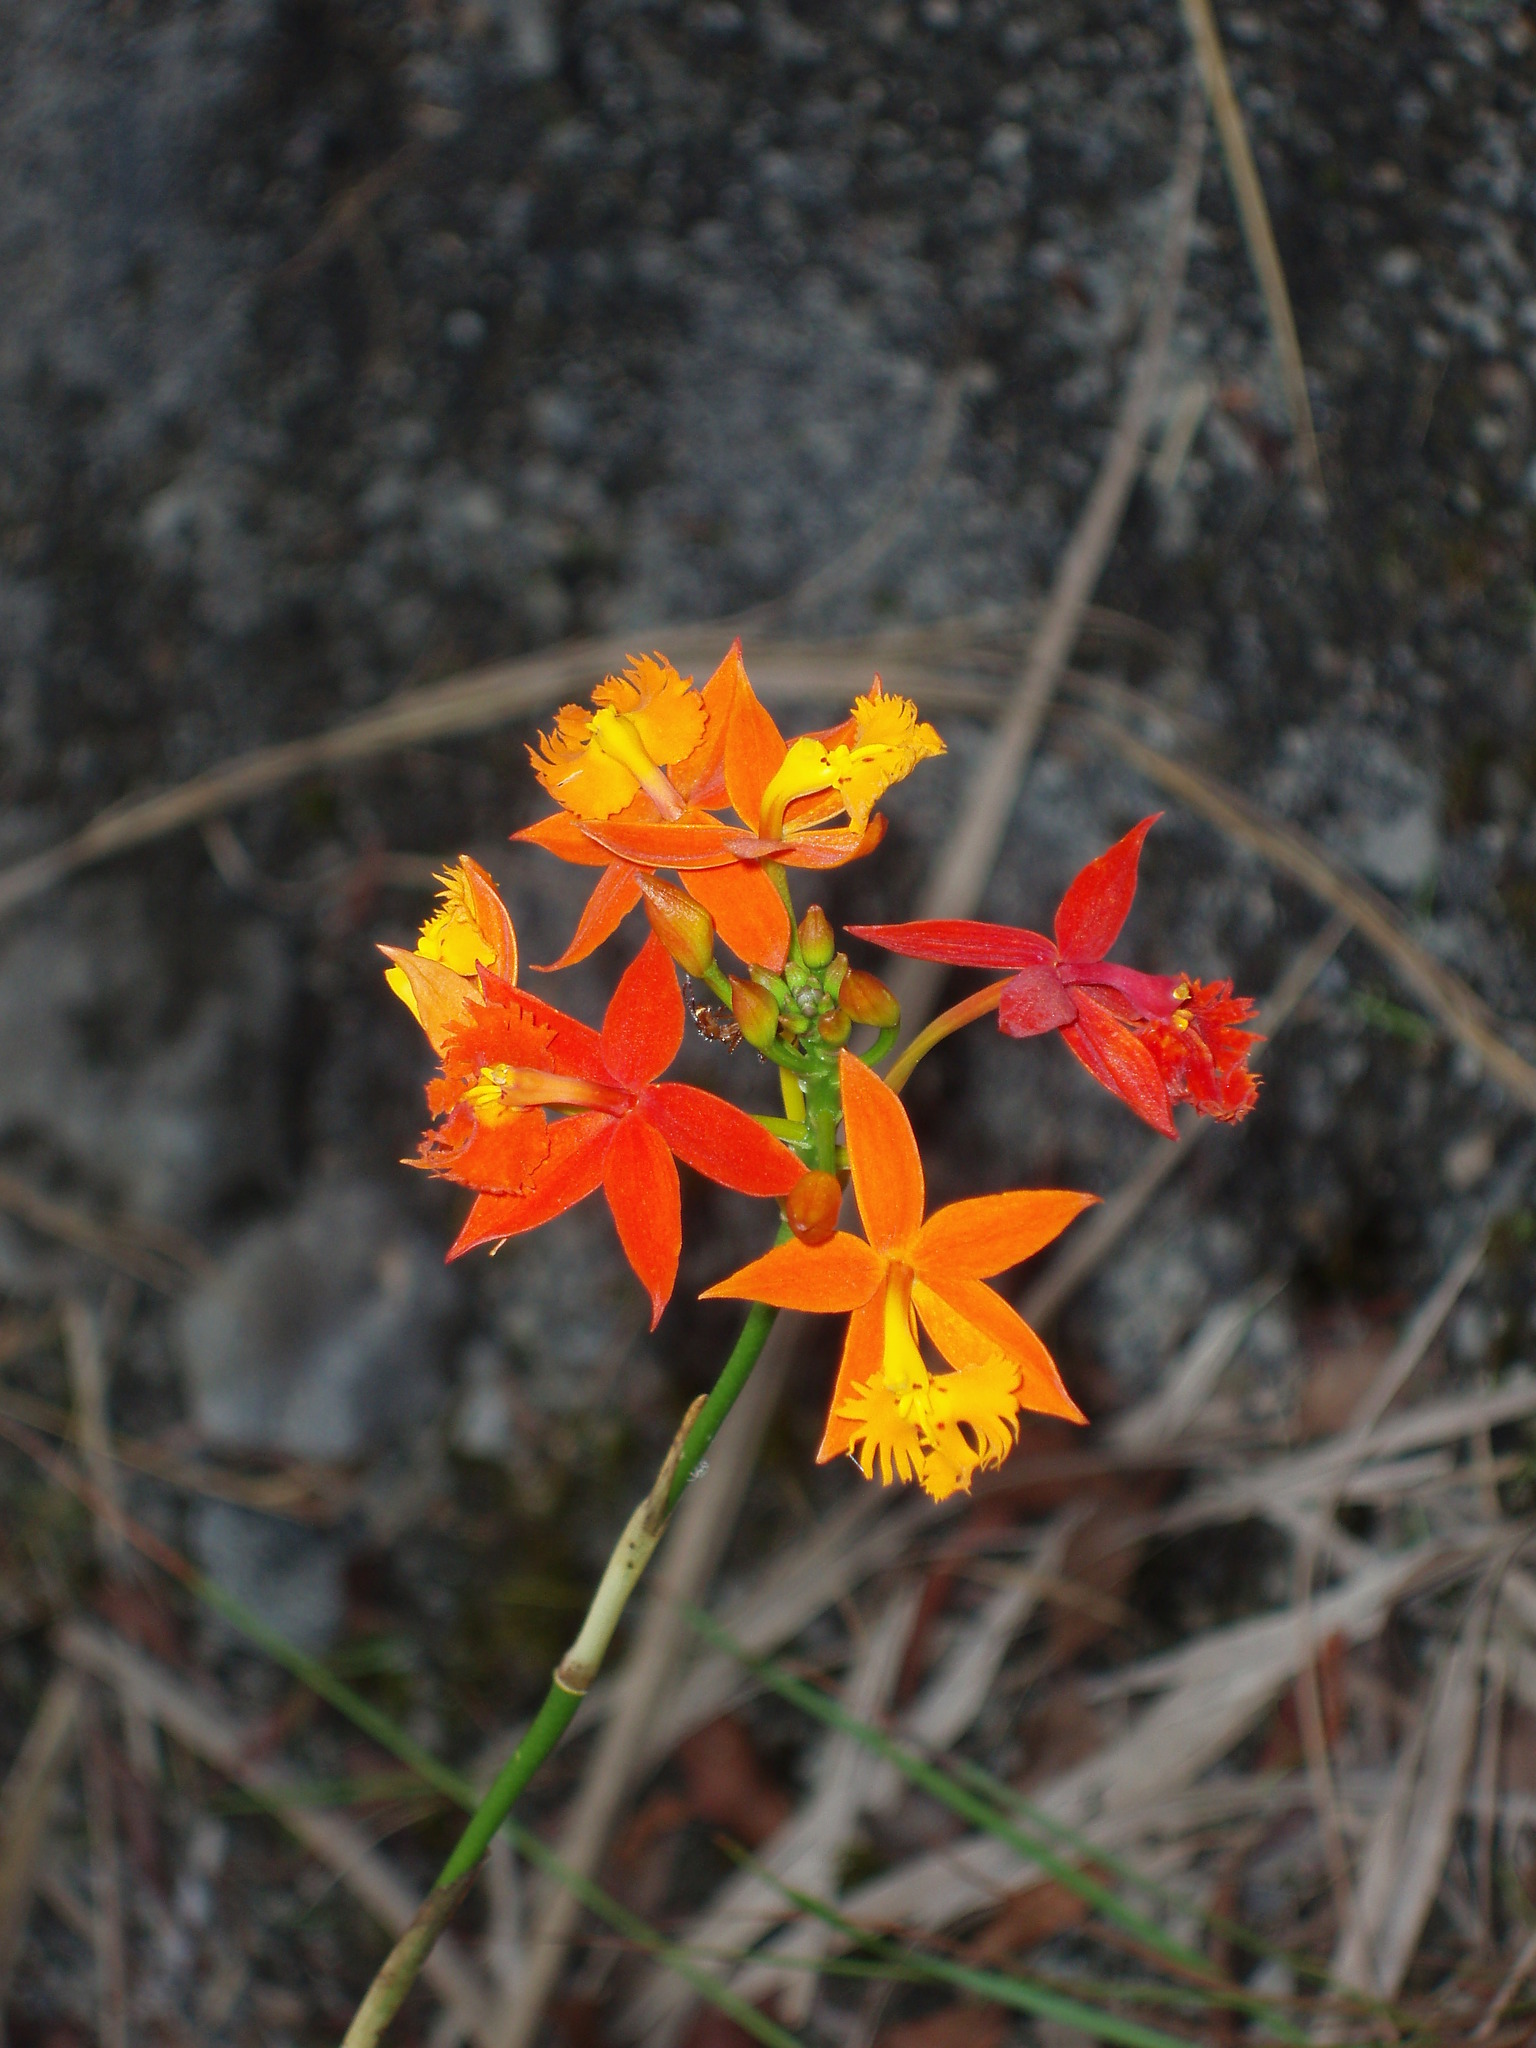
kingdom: Plantae
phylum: Tracheophyta
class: Liliopsida
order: Asparagales
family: Orchidaceae
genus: Epidendrum
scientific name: Epidendrum radicans
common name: Fire star orchid
